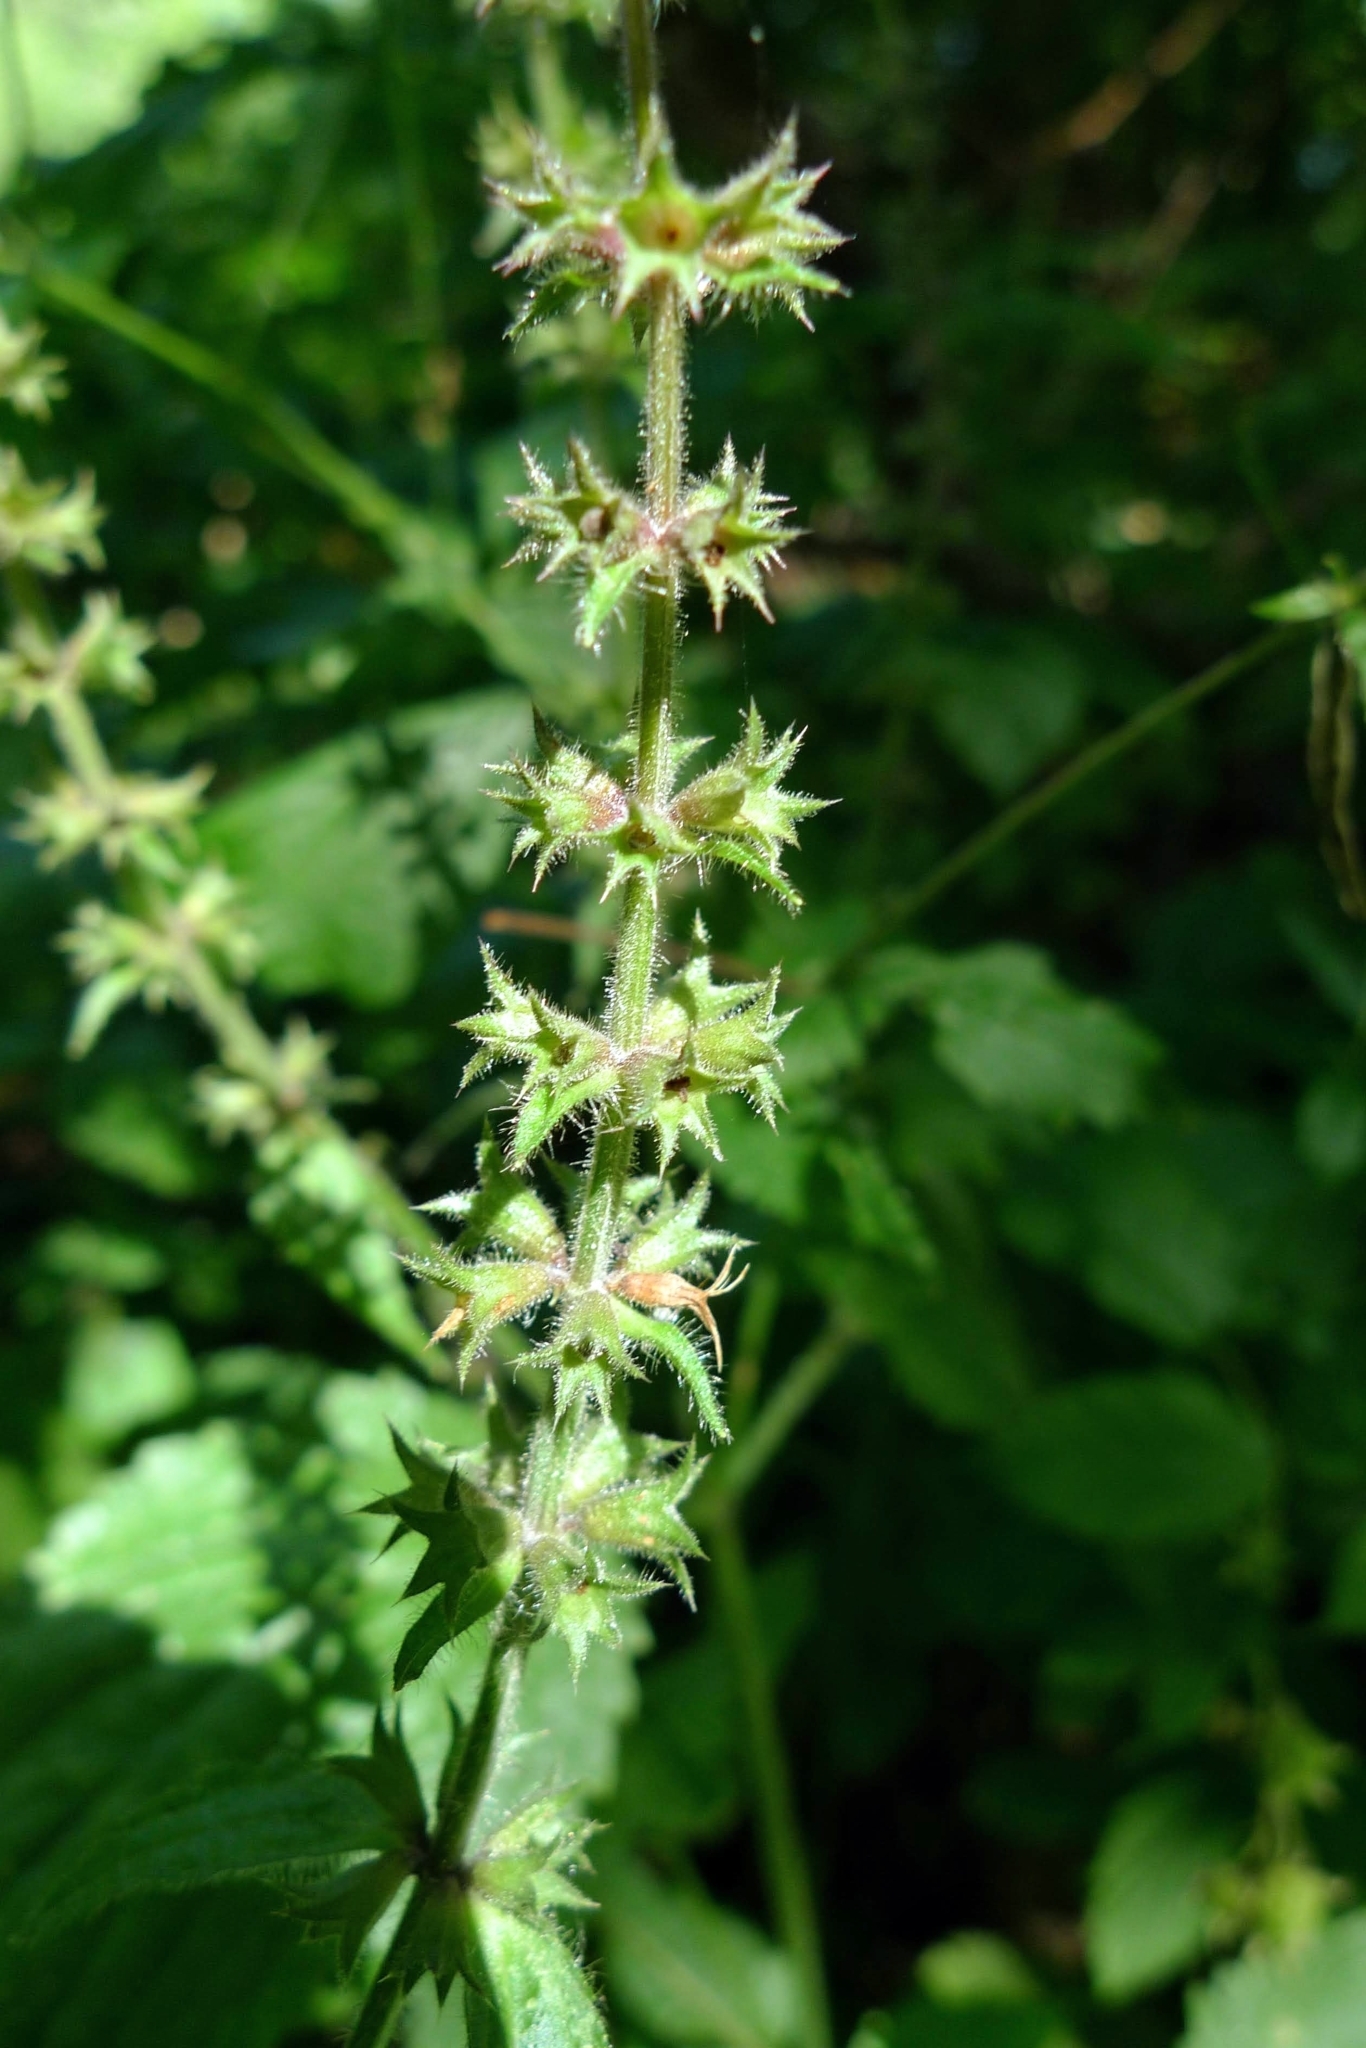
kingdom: Plantae
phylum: Tracheophyta
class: Magnoliopsida
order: Lamiales
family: Lamiaceae
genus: Stachys
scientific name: Stachys sylvatica
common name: Hedge woundwort
